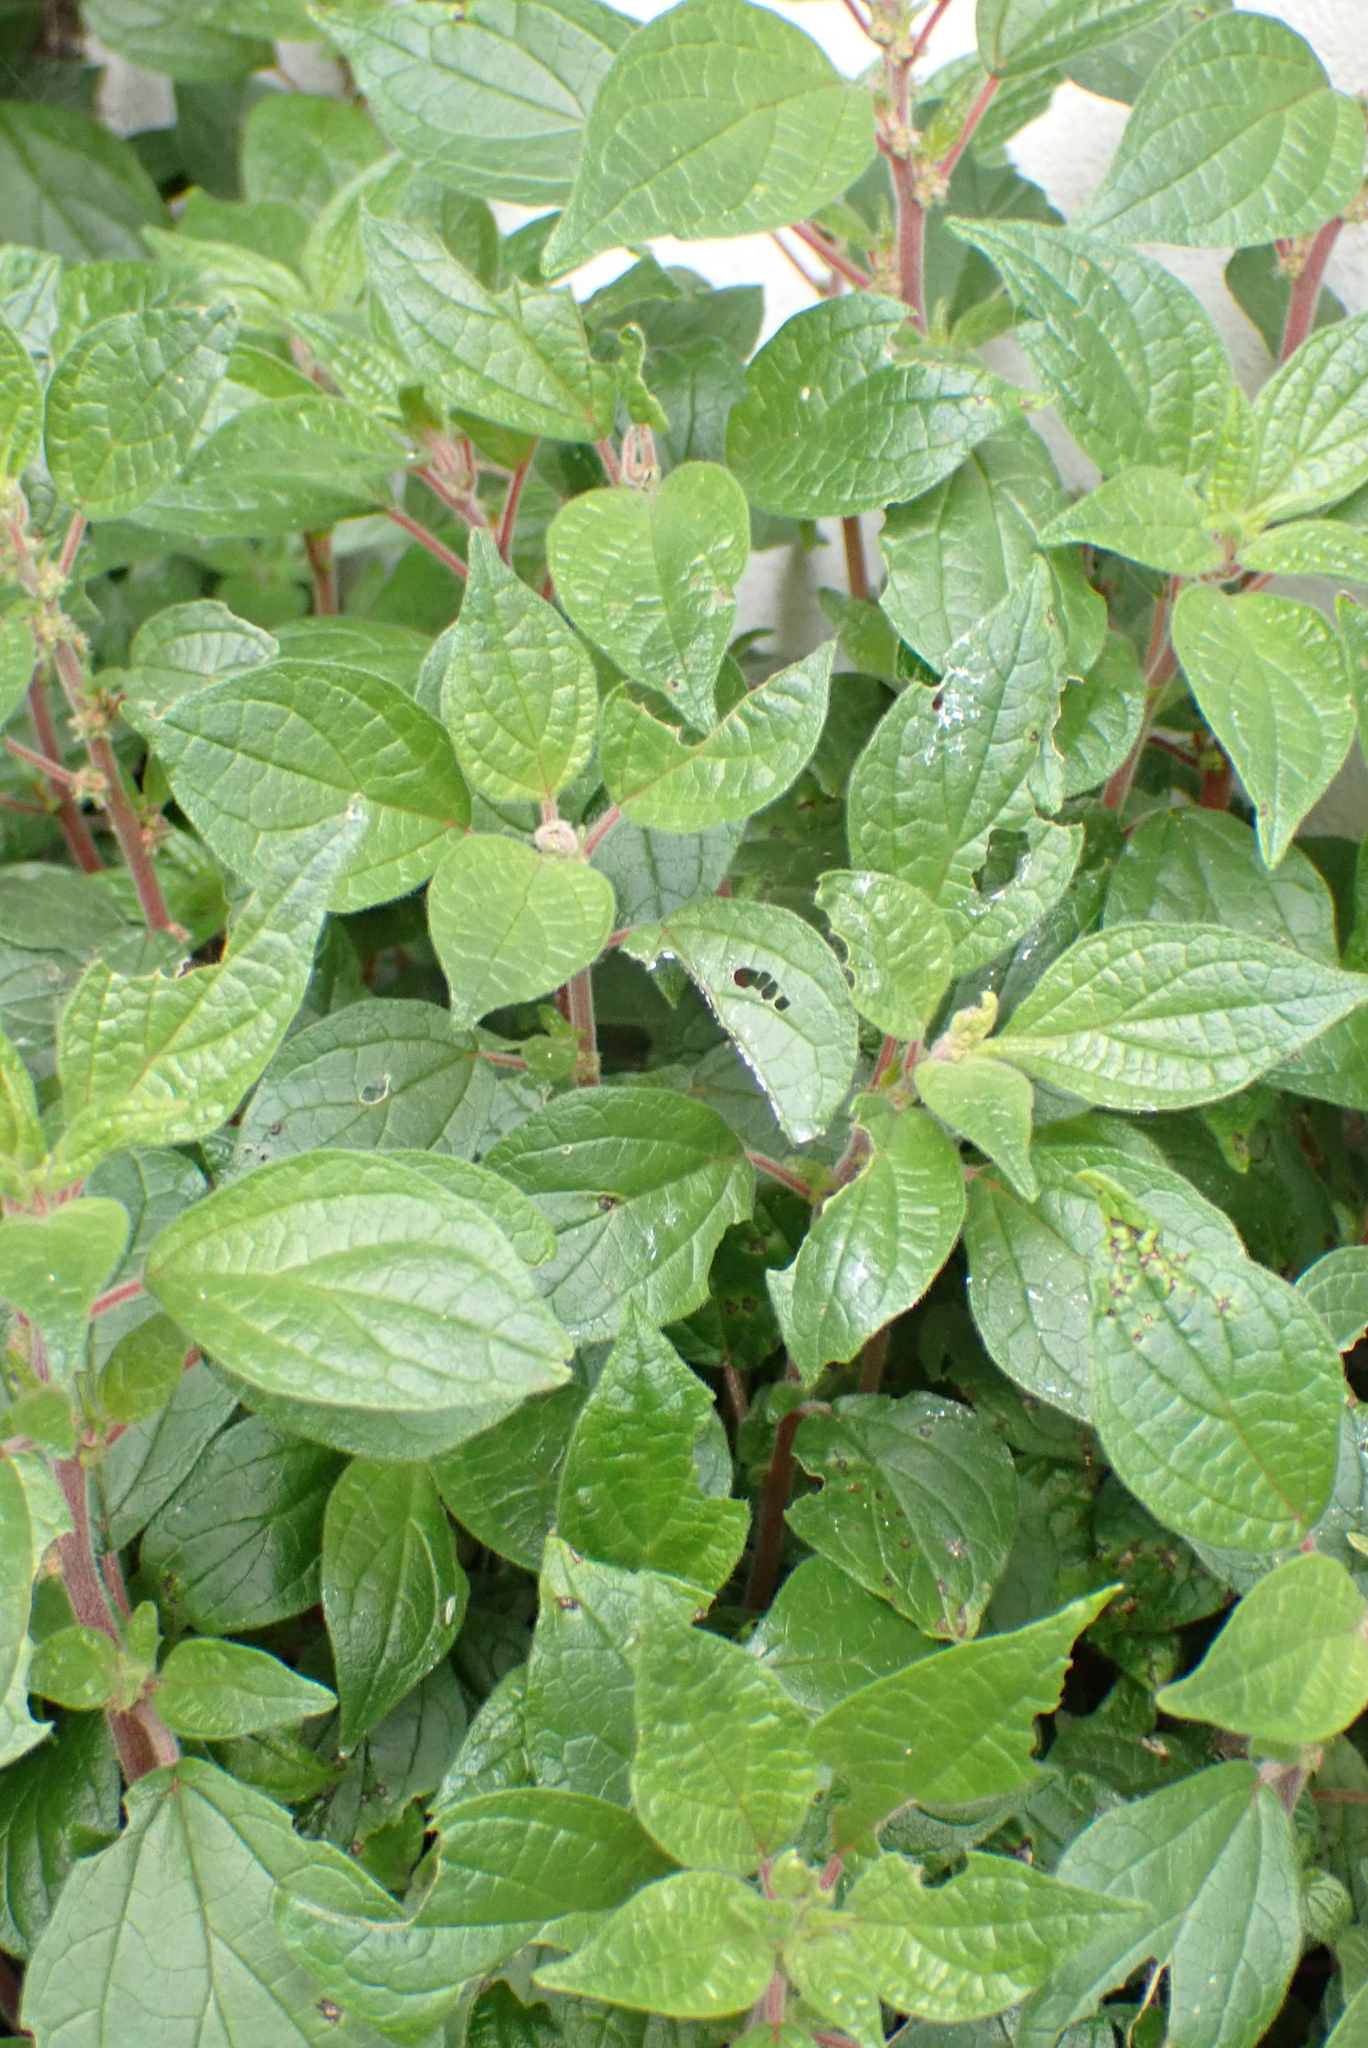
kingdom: Plantae
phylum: Tracheophyta
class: Magnoliopsida
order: Rosales
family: Urticaceae
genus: Parietaria
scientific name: Parietaria judaica
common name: Pellitory-of-the-wall
